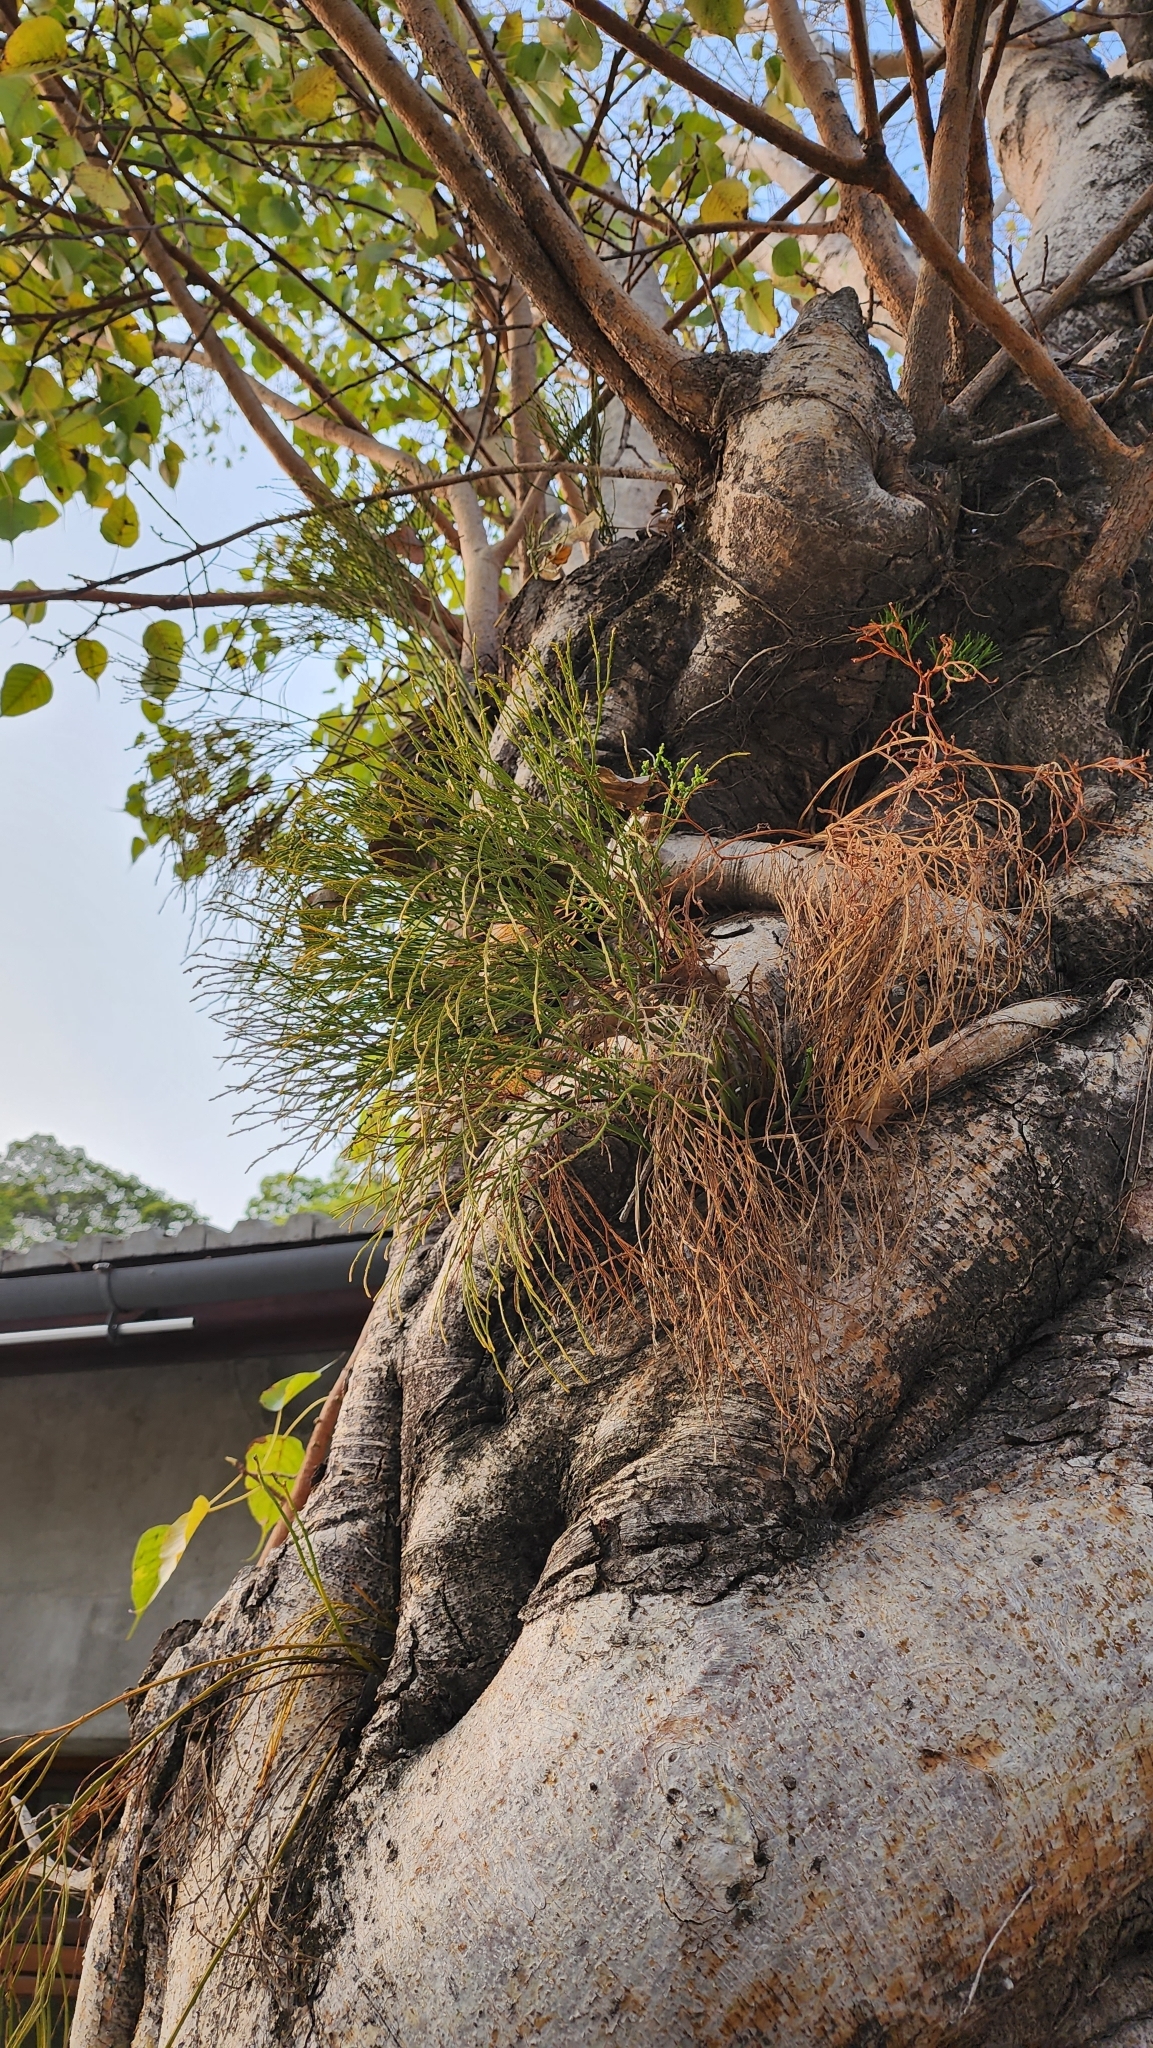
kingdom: Plantae
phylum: Tracheophyta
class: Polypodiopsida
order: Psilotales
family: Psilotaceae
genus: Psilotum
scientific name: Psilotum nudum
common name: Skeleton fork fern
